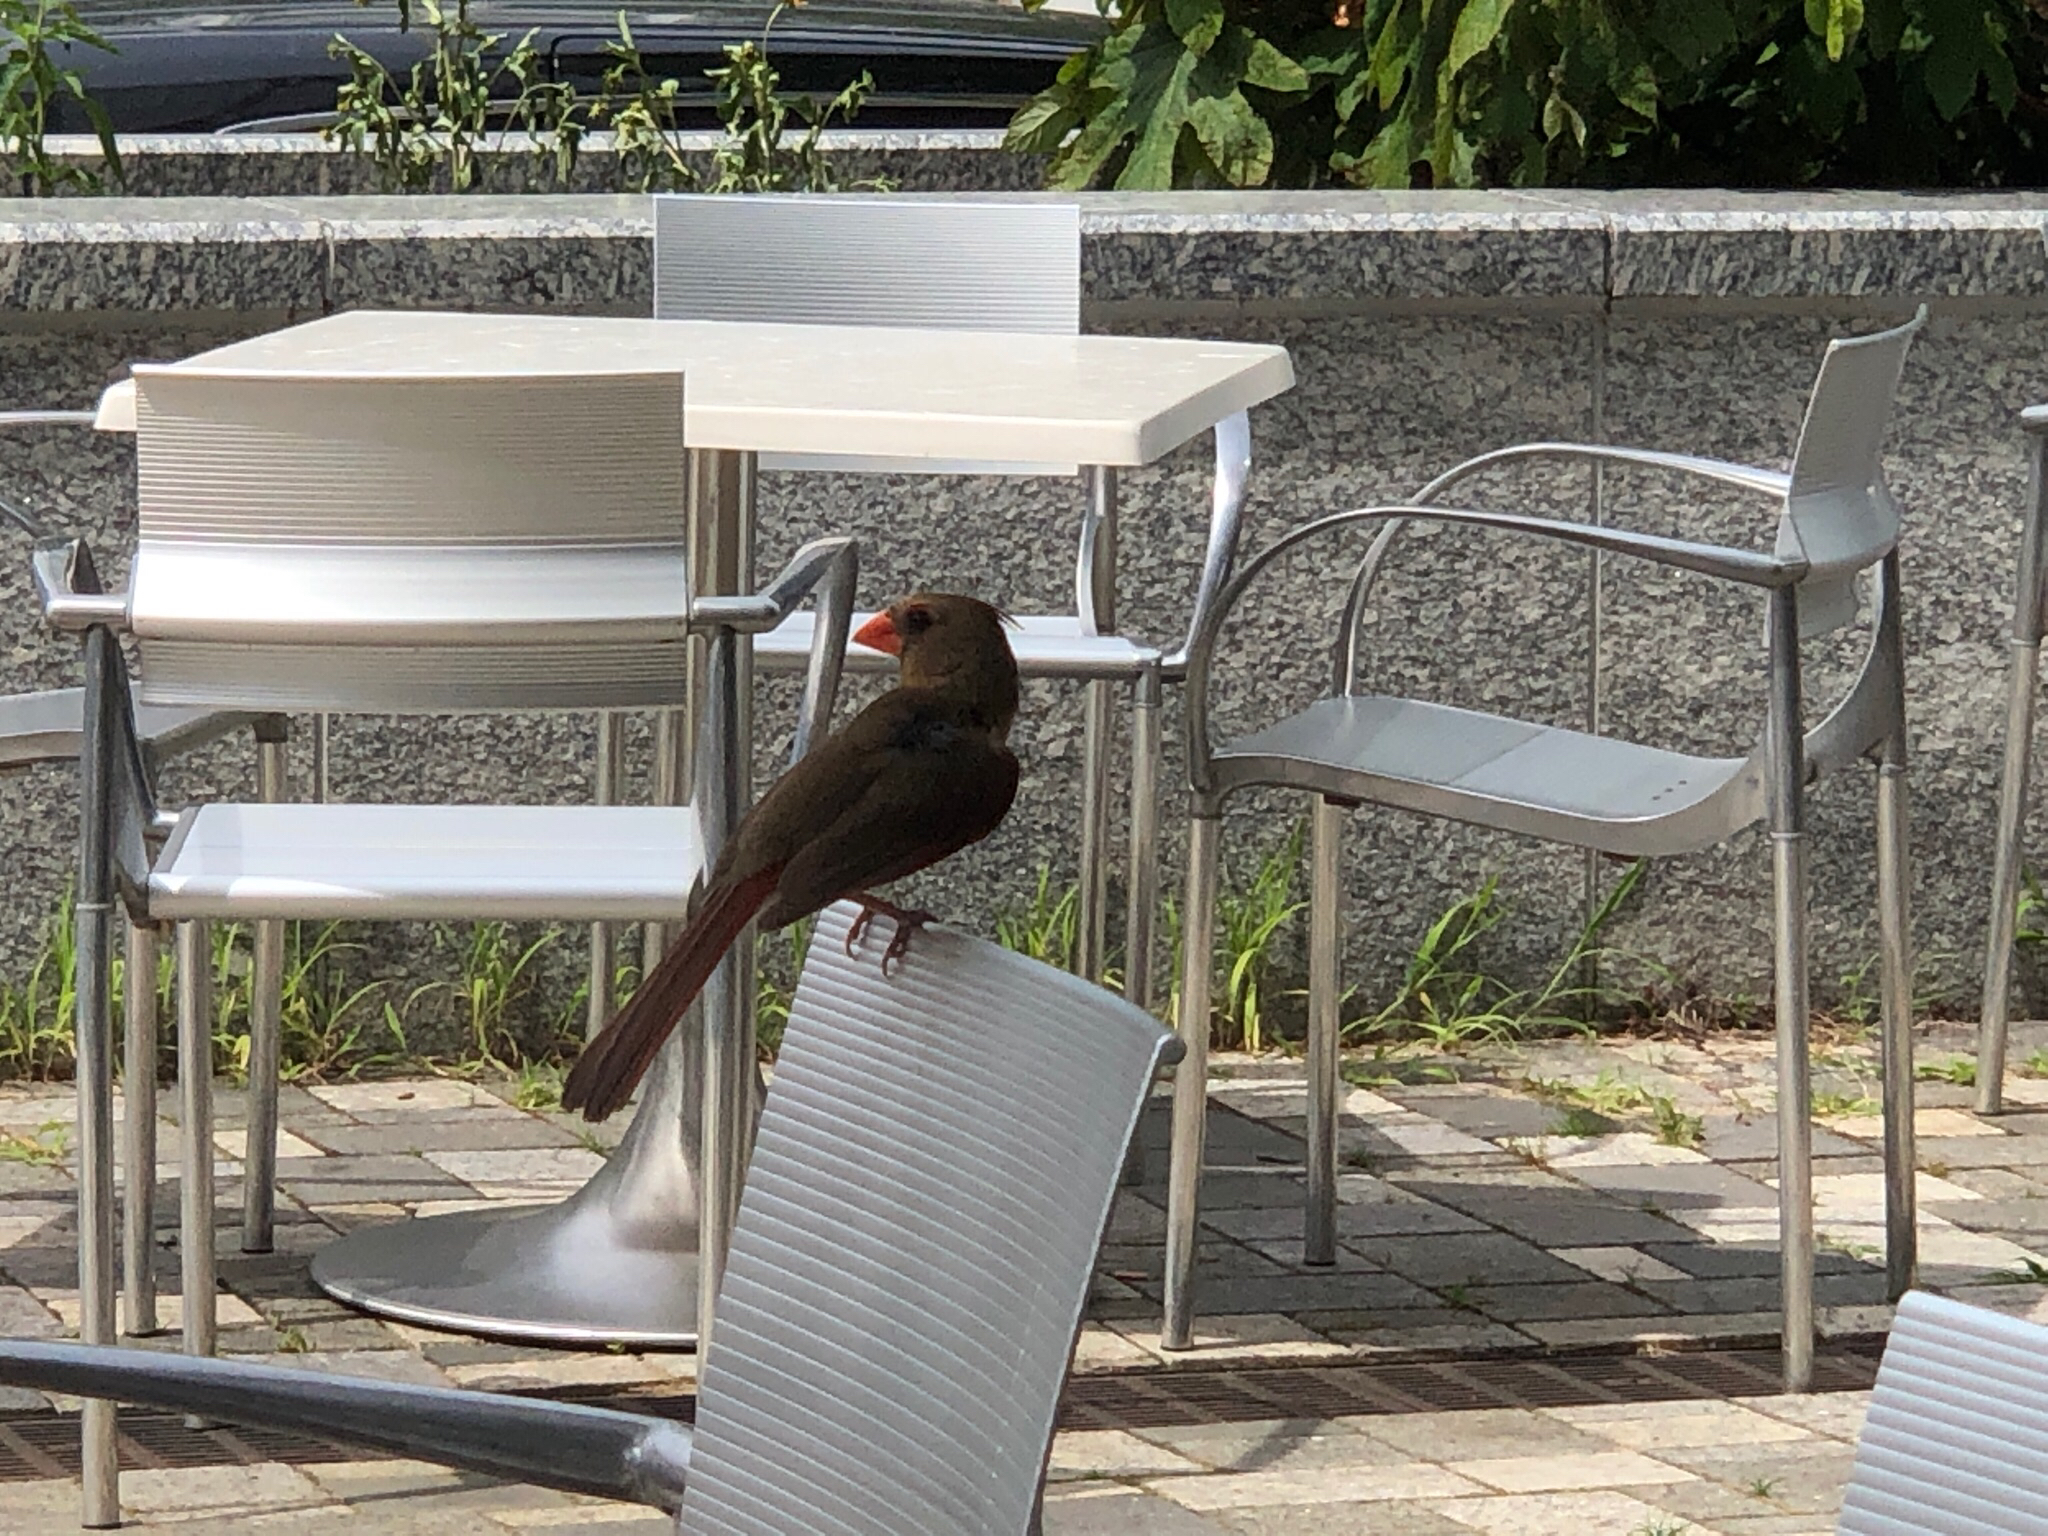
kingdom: Animalia
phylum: Chordata
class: Aves
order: Passeriformes
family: Cardinalidae
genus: Cardinalis
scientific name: Cardinalis cardinalis
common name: Northern cardinal
